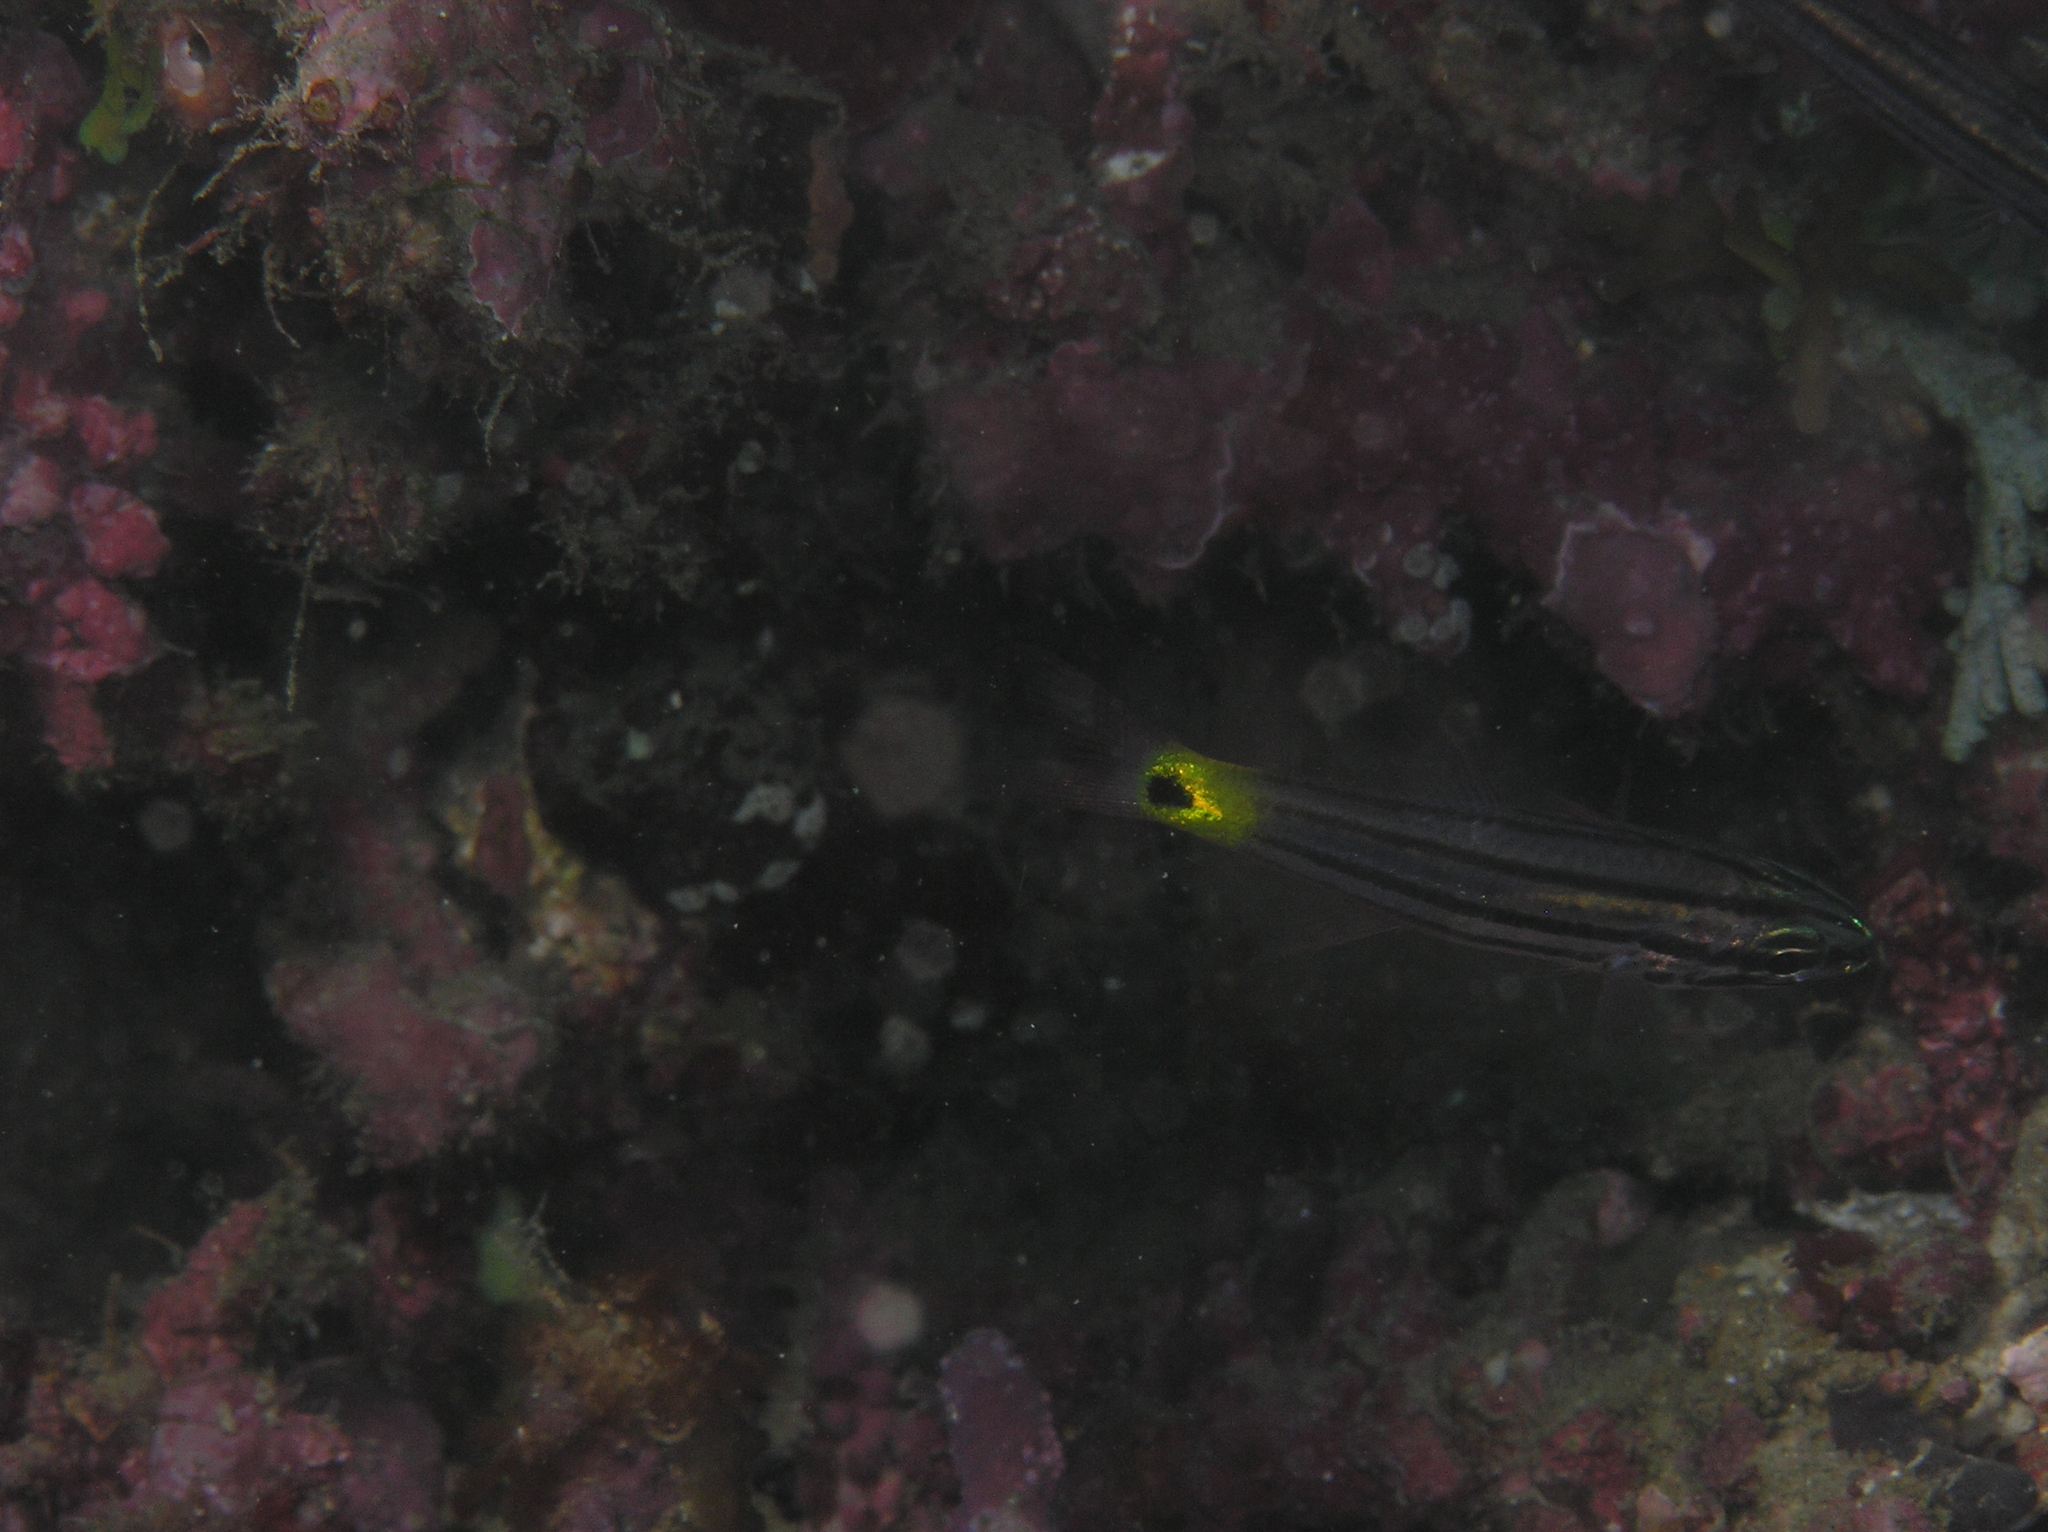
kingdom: Animalia
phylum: Chordata
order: Perciformes
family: Apogonidae
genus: Cheilodipterus
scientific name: Cheilodipterus artus
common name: Wolf cardinal
